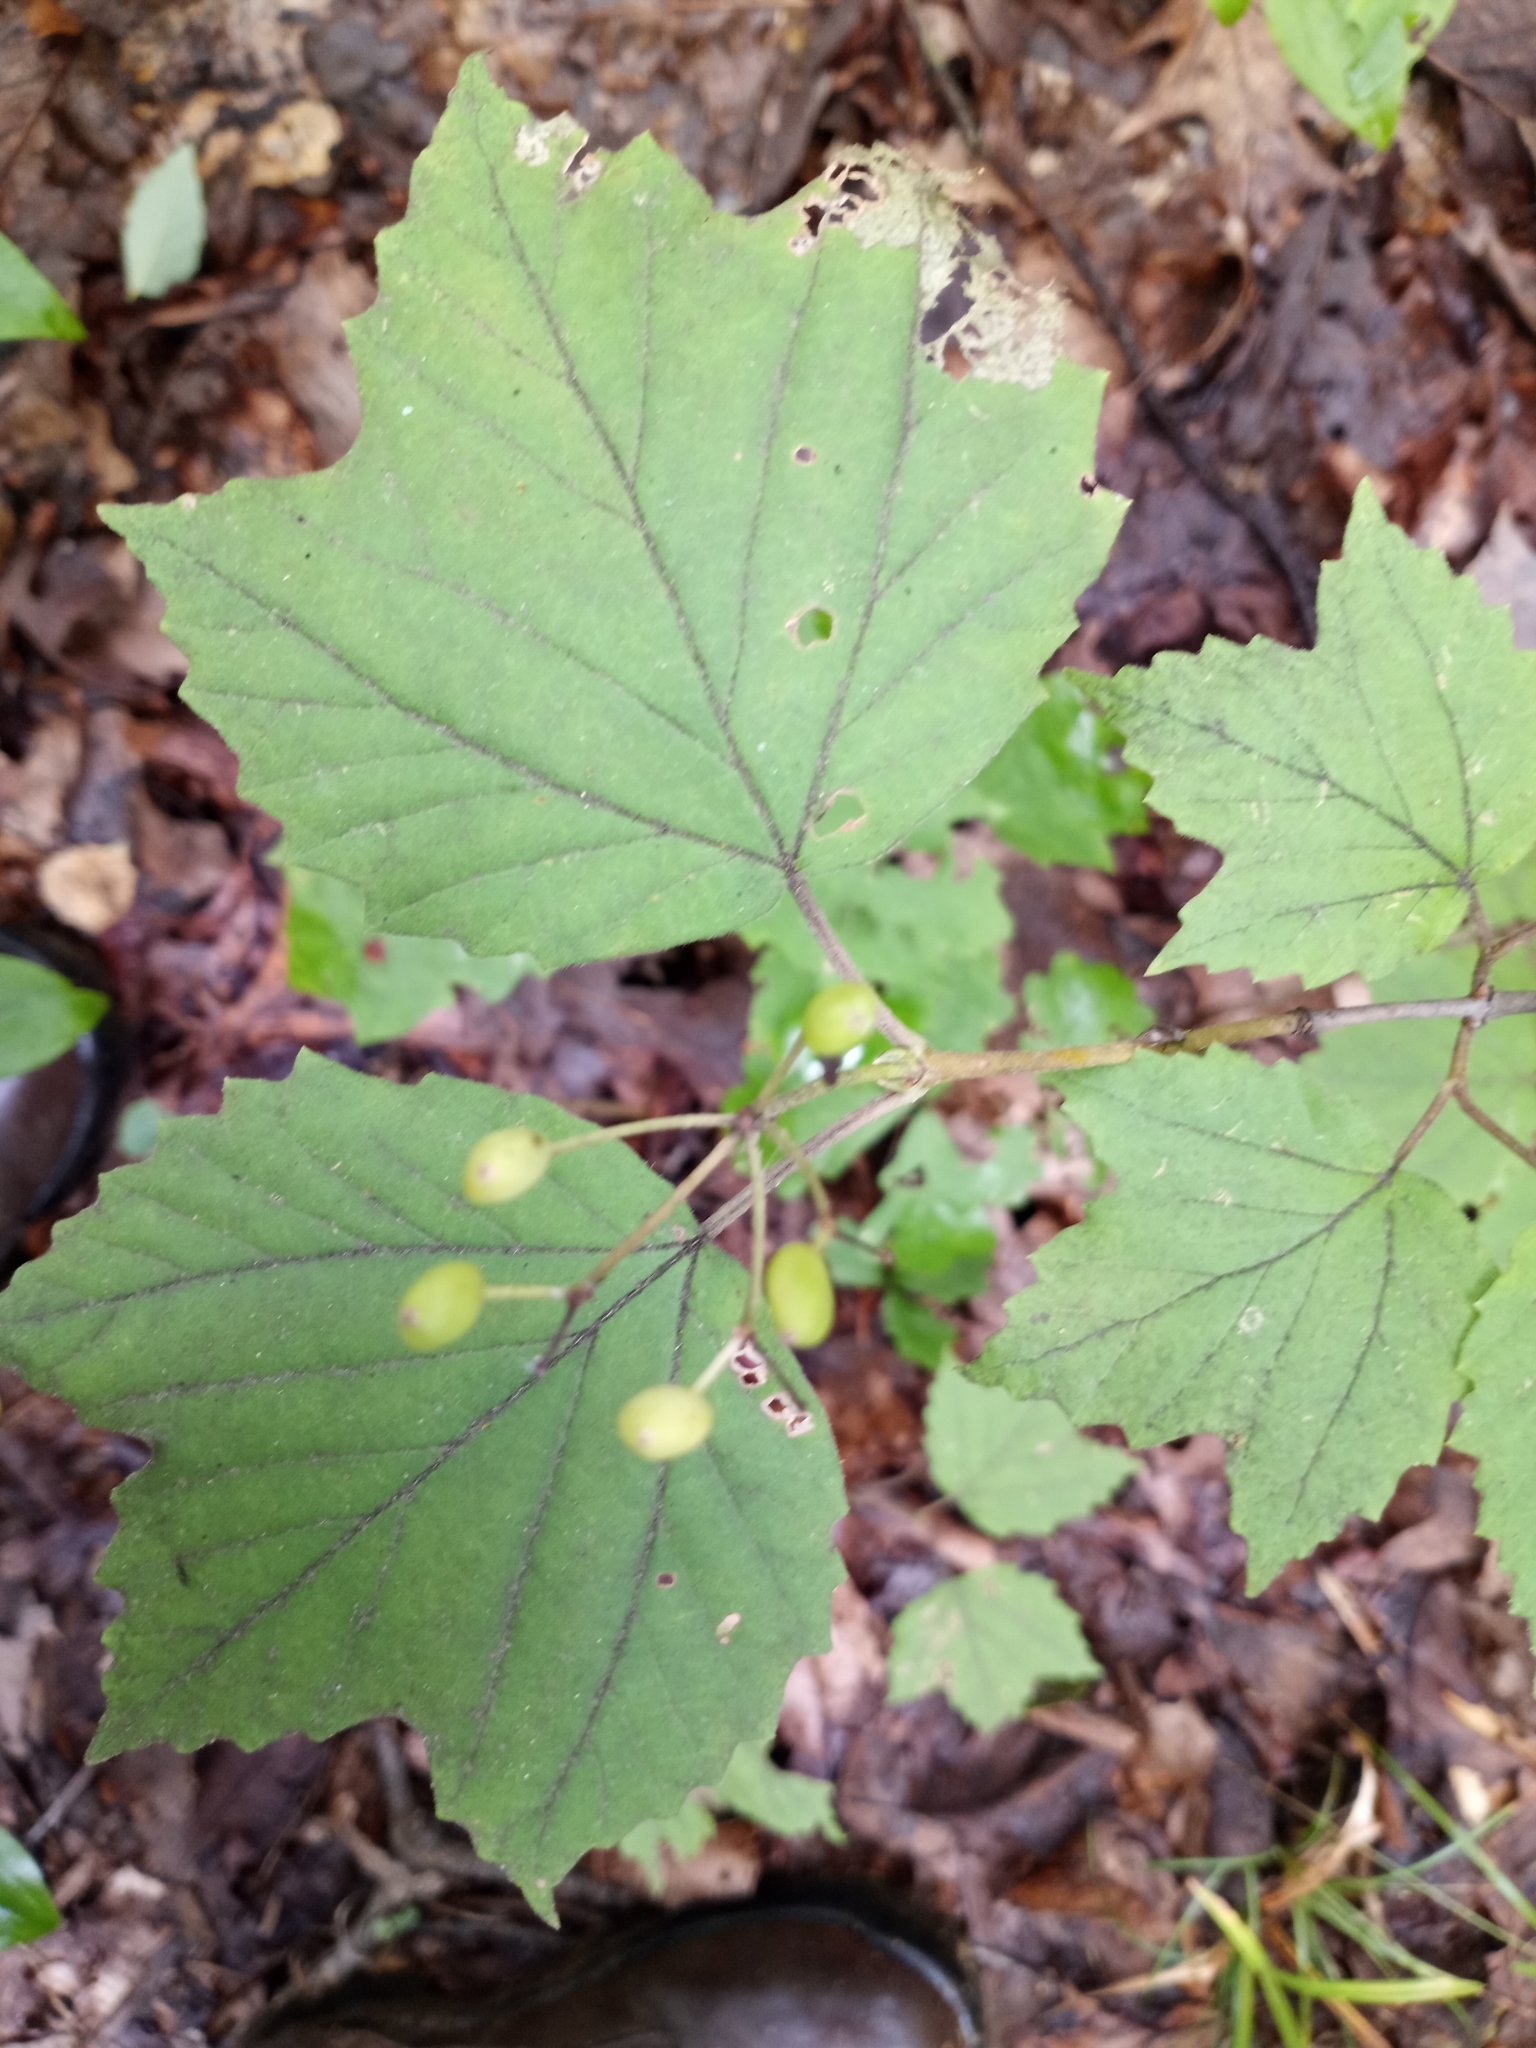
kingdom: Plantae
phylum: Tracheophyta
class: Magnoliopsida
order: Dipsacales
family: Viburnaceae
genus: Viburnum
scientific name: Viburnum acerifolium
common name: Dockmackie
